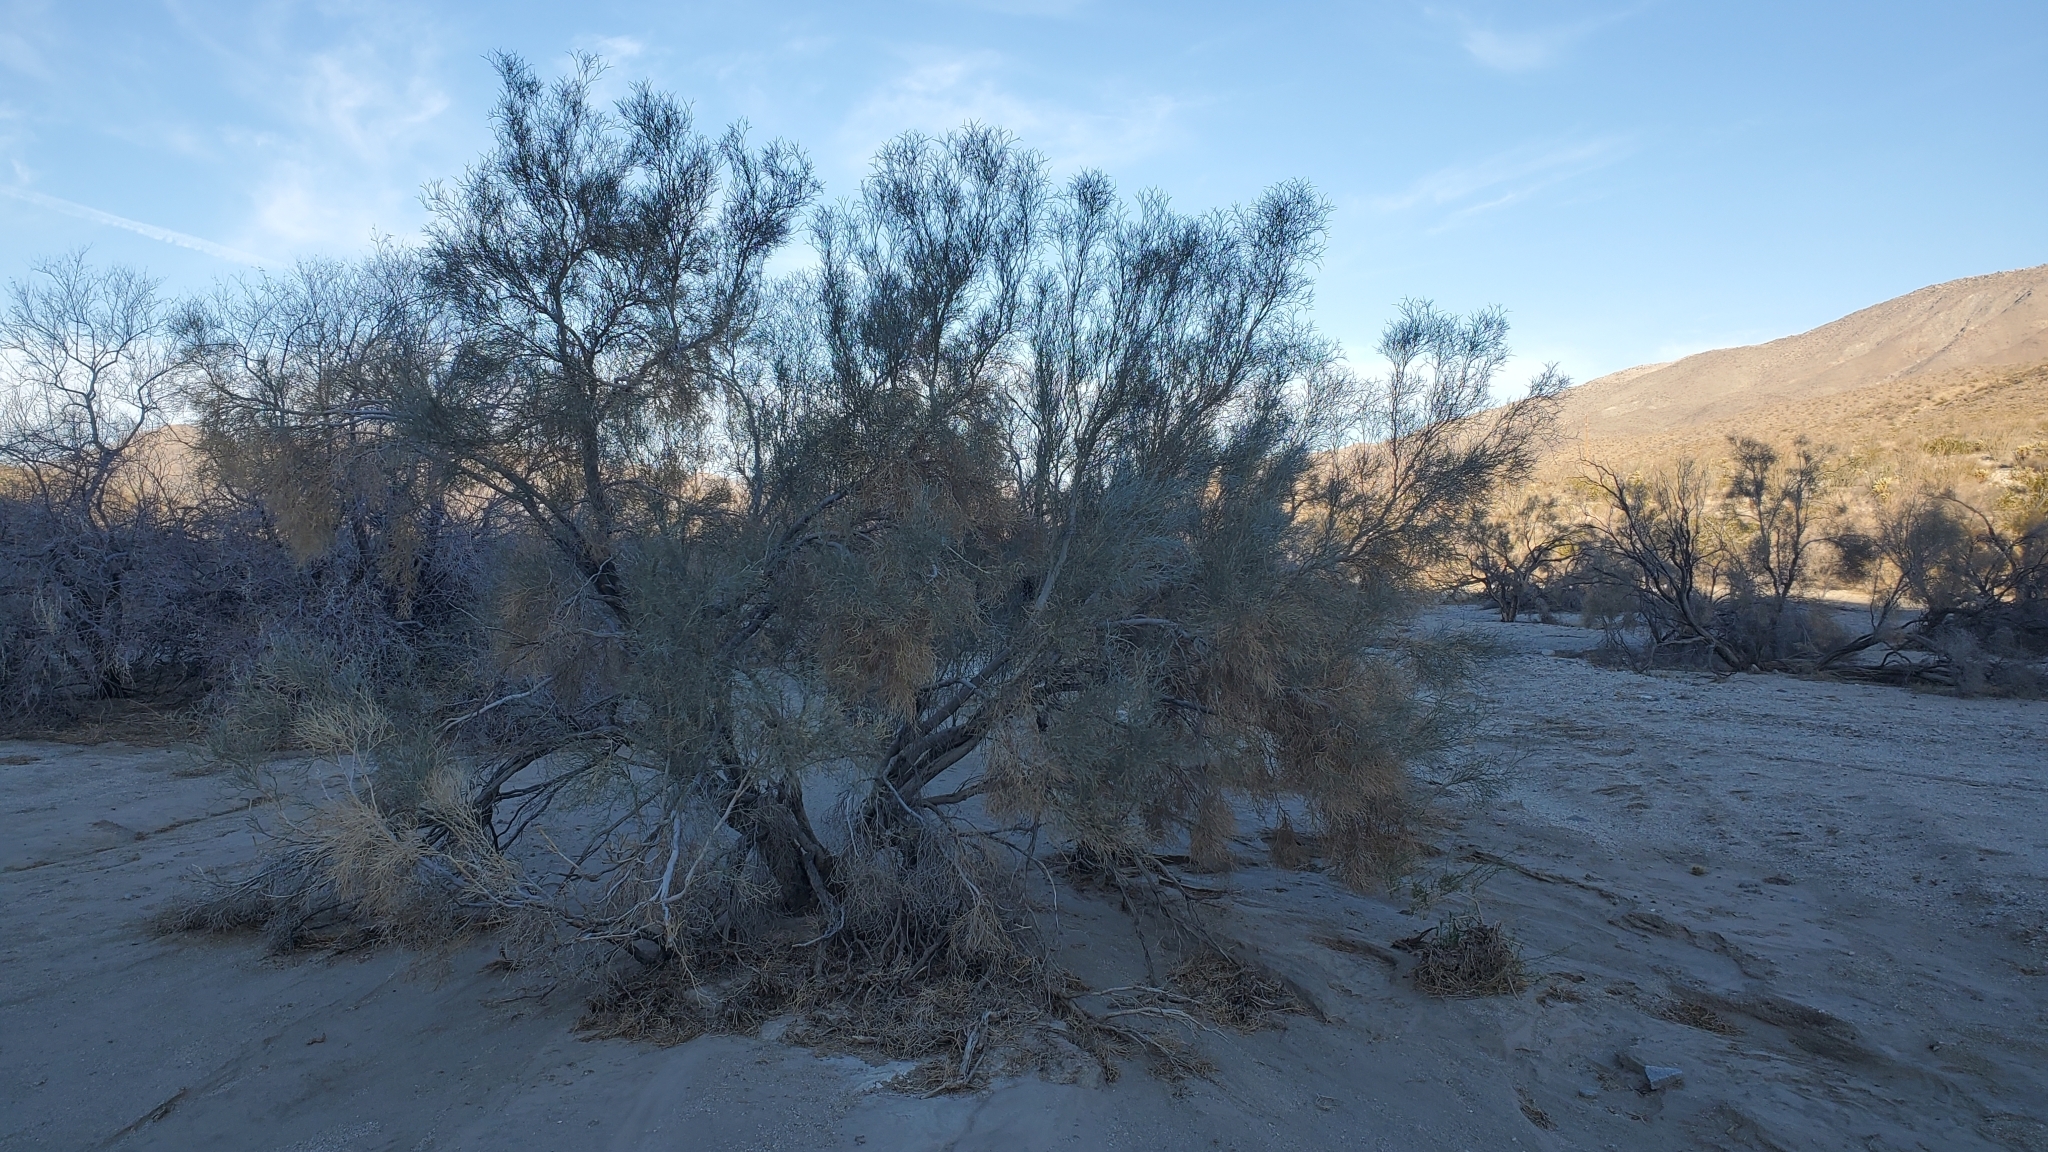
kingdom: Plantae
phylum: Tracheophyta
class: Magnoliopsida
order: Fabales
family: Fabaceae
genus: Psorothamnus
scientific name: Psorothamnus spinosus
